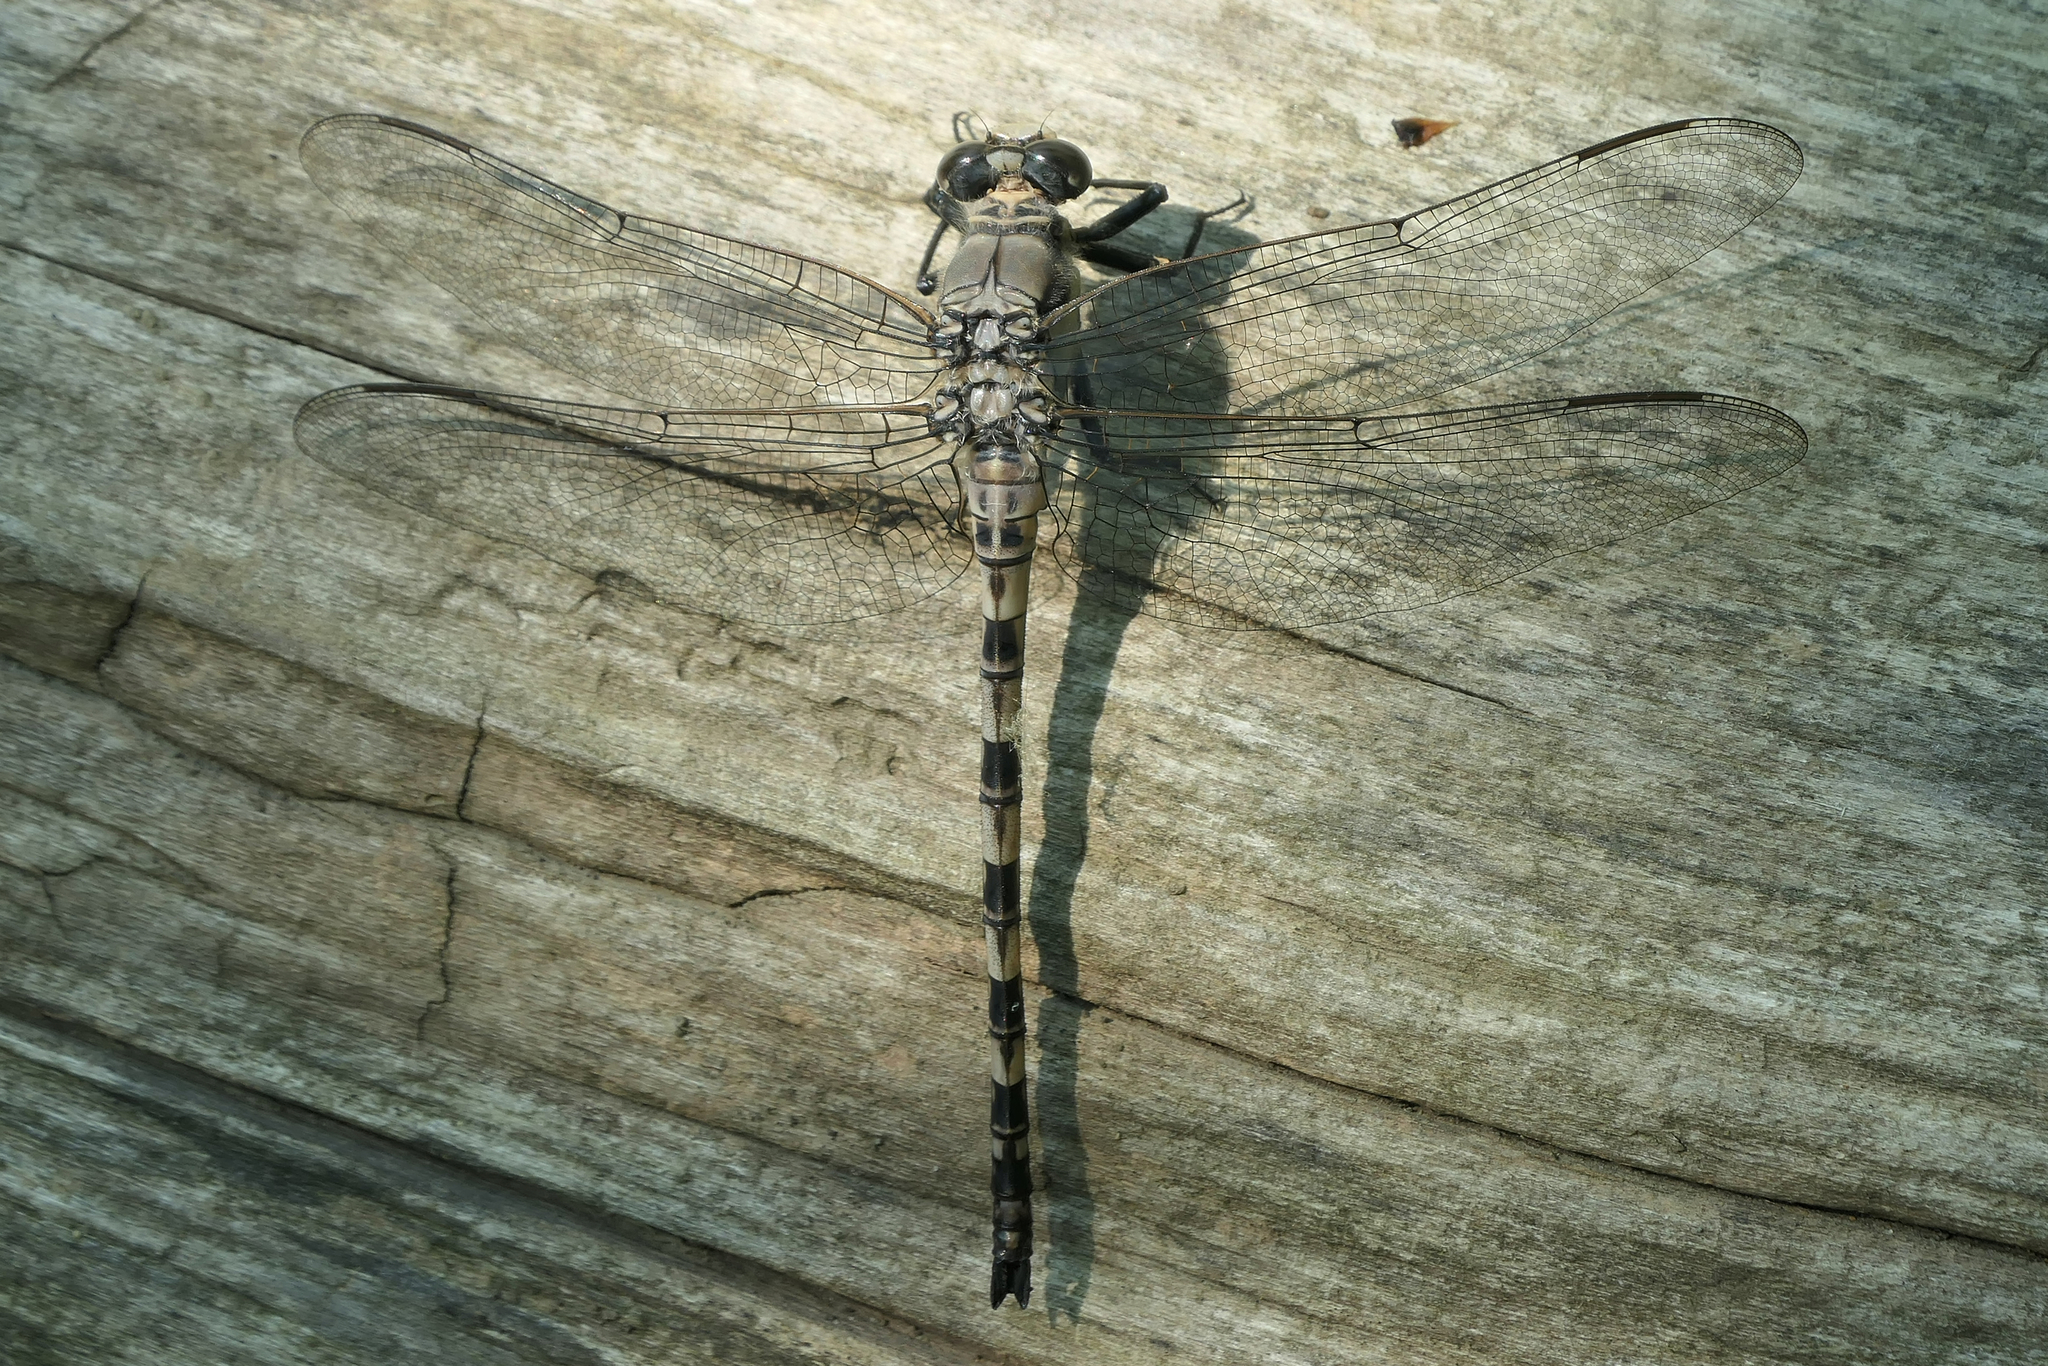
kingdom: Animalia
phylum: Arthropoda
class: Insecta
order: Odonata
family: Petaluridae
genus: Tachopteryx
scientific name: Tachopteryx thoreyi
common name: Gray petaltail
